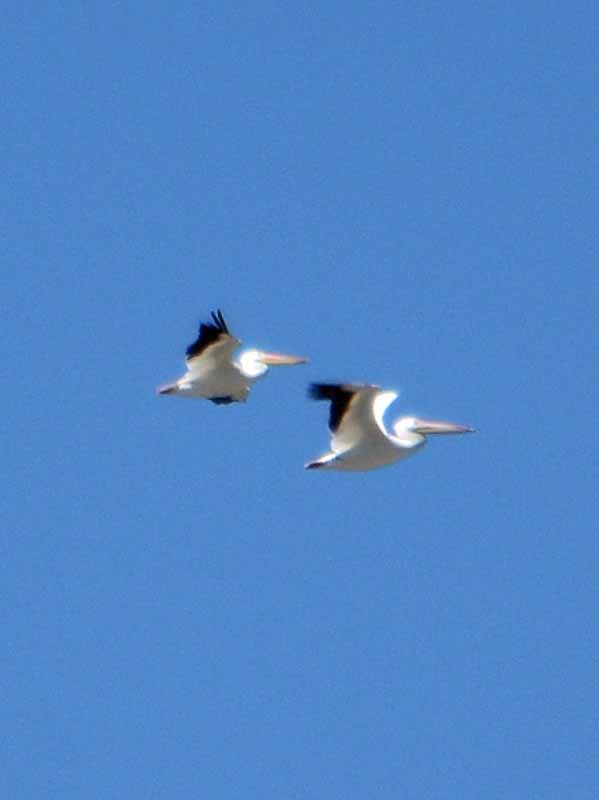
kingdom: Animalia
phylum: Chordata
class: Aves
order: Pelecaniformes
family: Pelecanidae
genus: Pelecanus
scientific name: Pelecanus erythrorhynchos
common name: American white pelican
